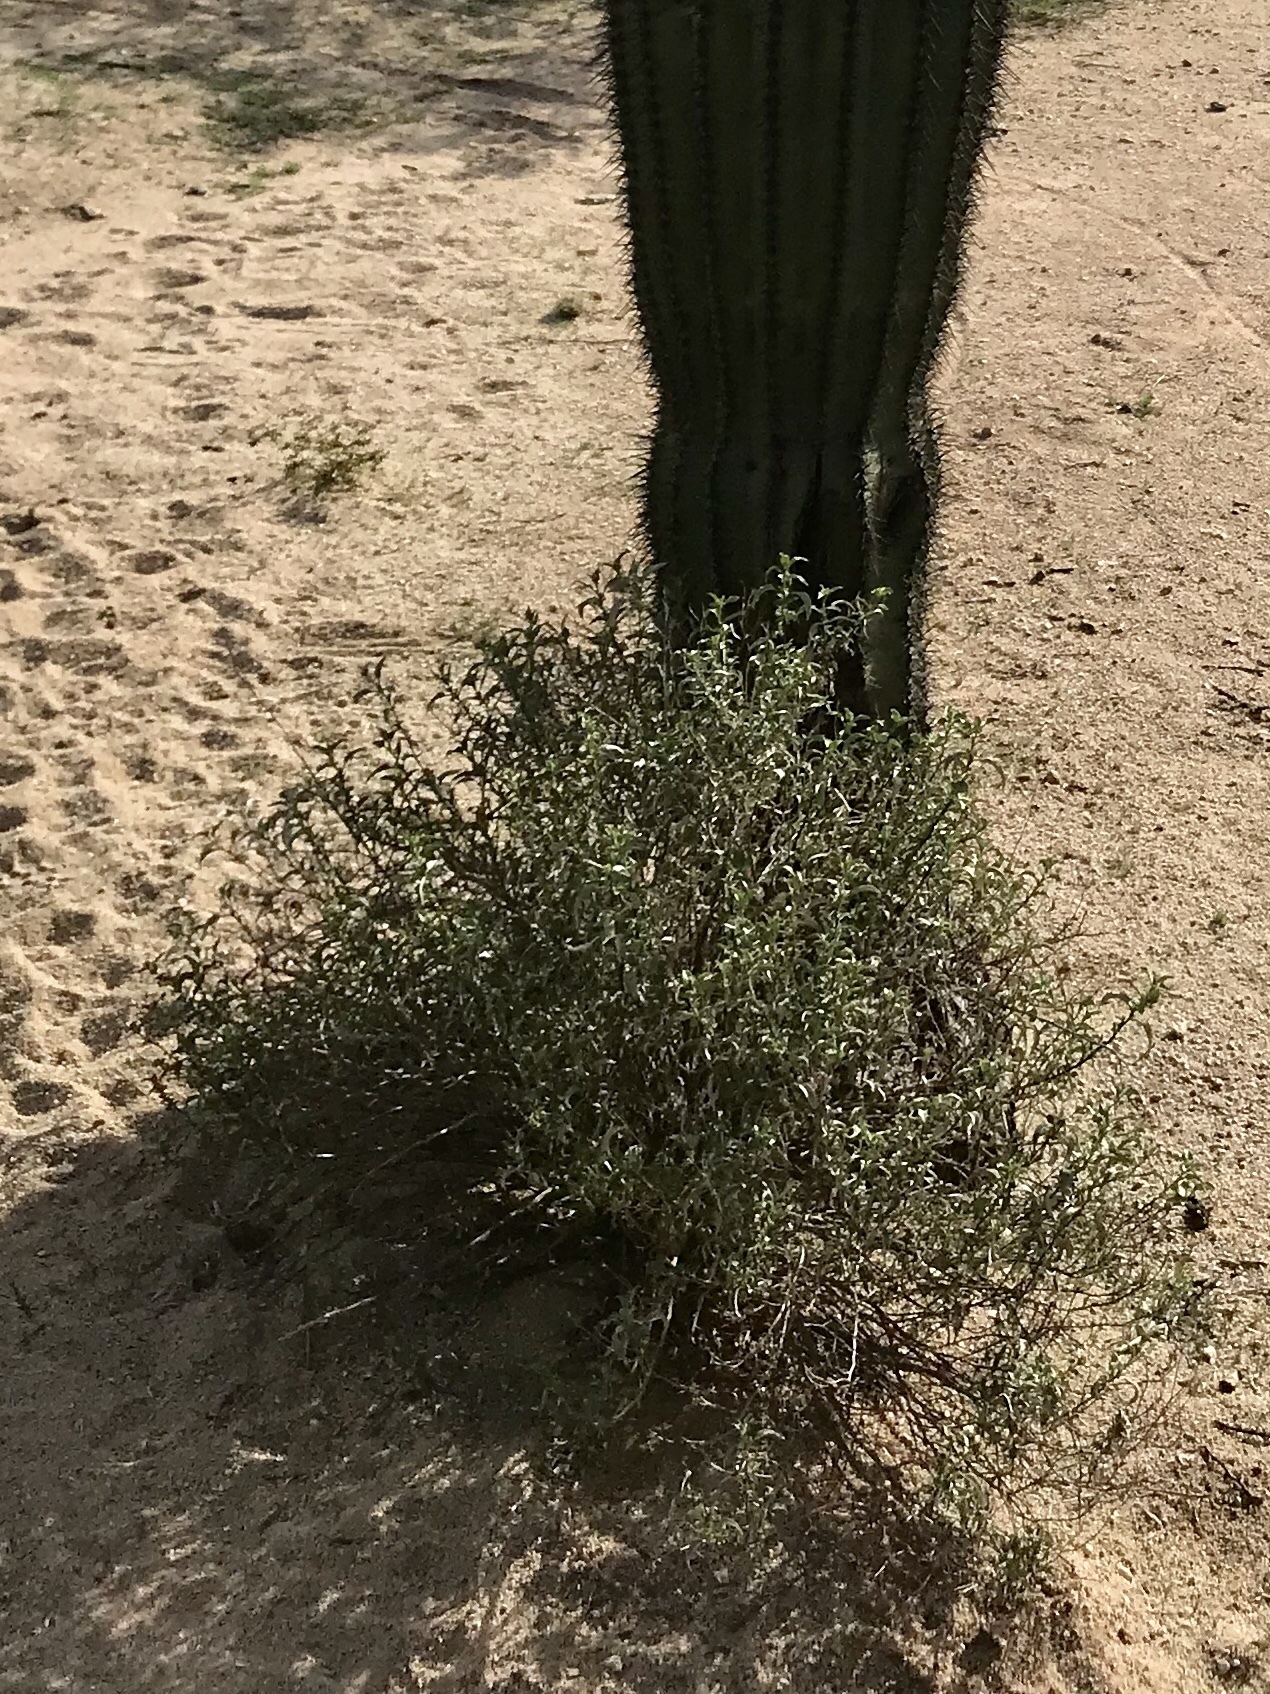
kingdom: Plantae
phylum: Tracheophyta
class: Magnoliopsida
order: Asterales
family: Asteraceae
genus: Ambrosia
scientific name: Ambrosia deltoidea
